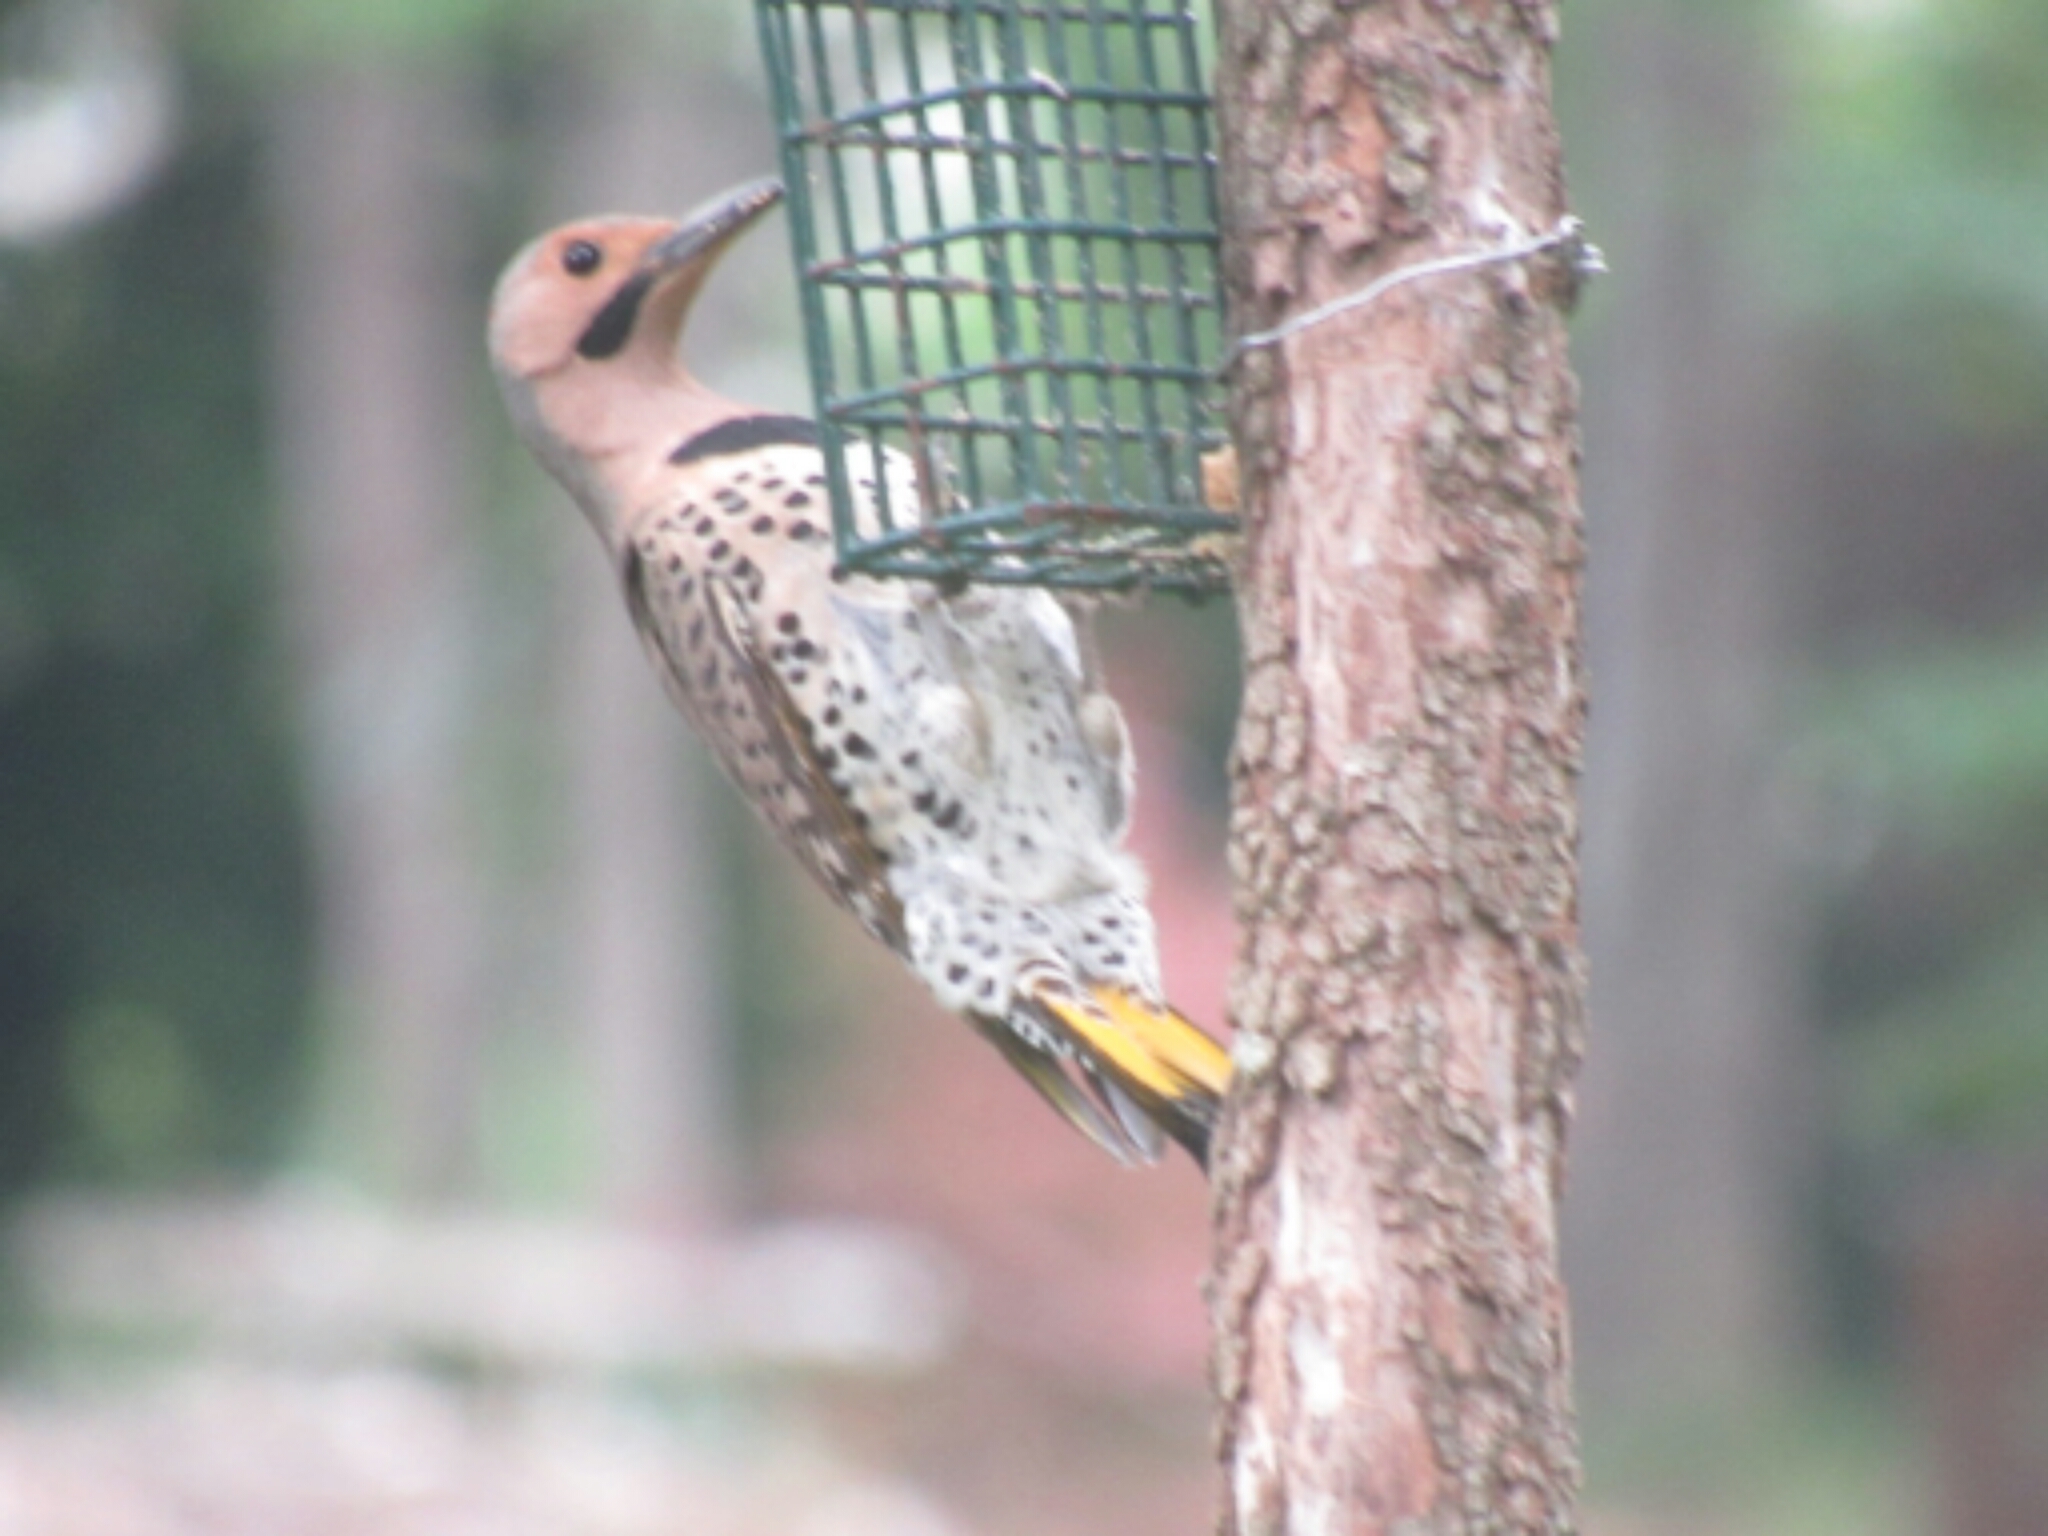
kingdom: Animalia
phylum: Chordata
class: Aves
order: Piciformes
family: Picidae
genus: Colaptes
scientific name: Colaptes auratus
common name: Northern flicker
